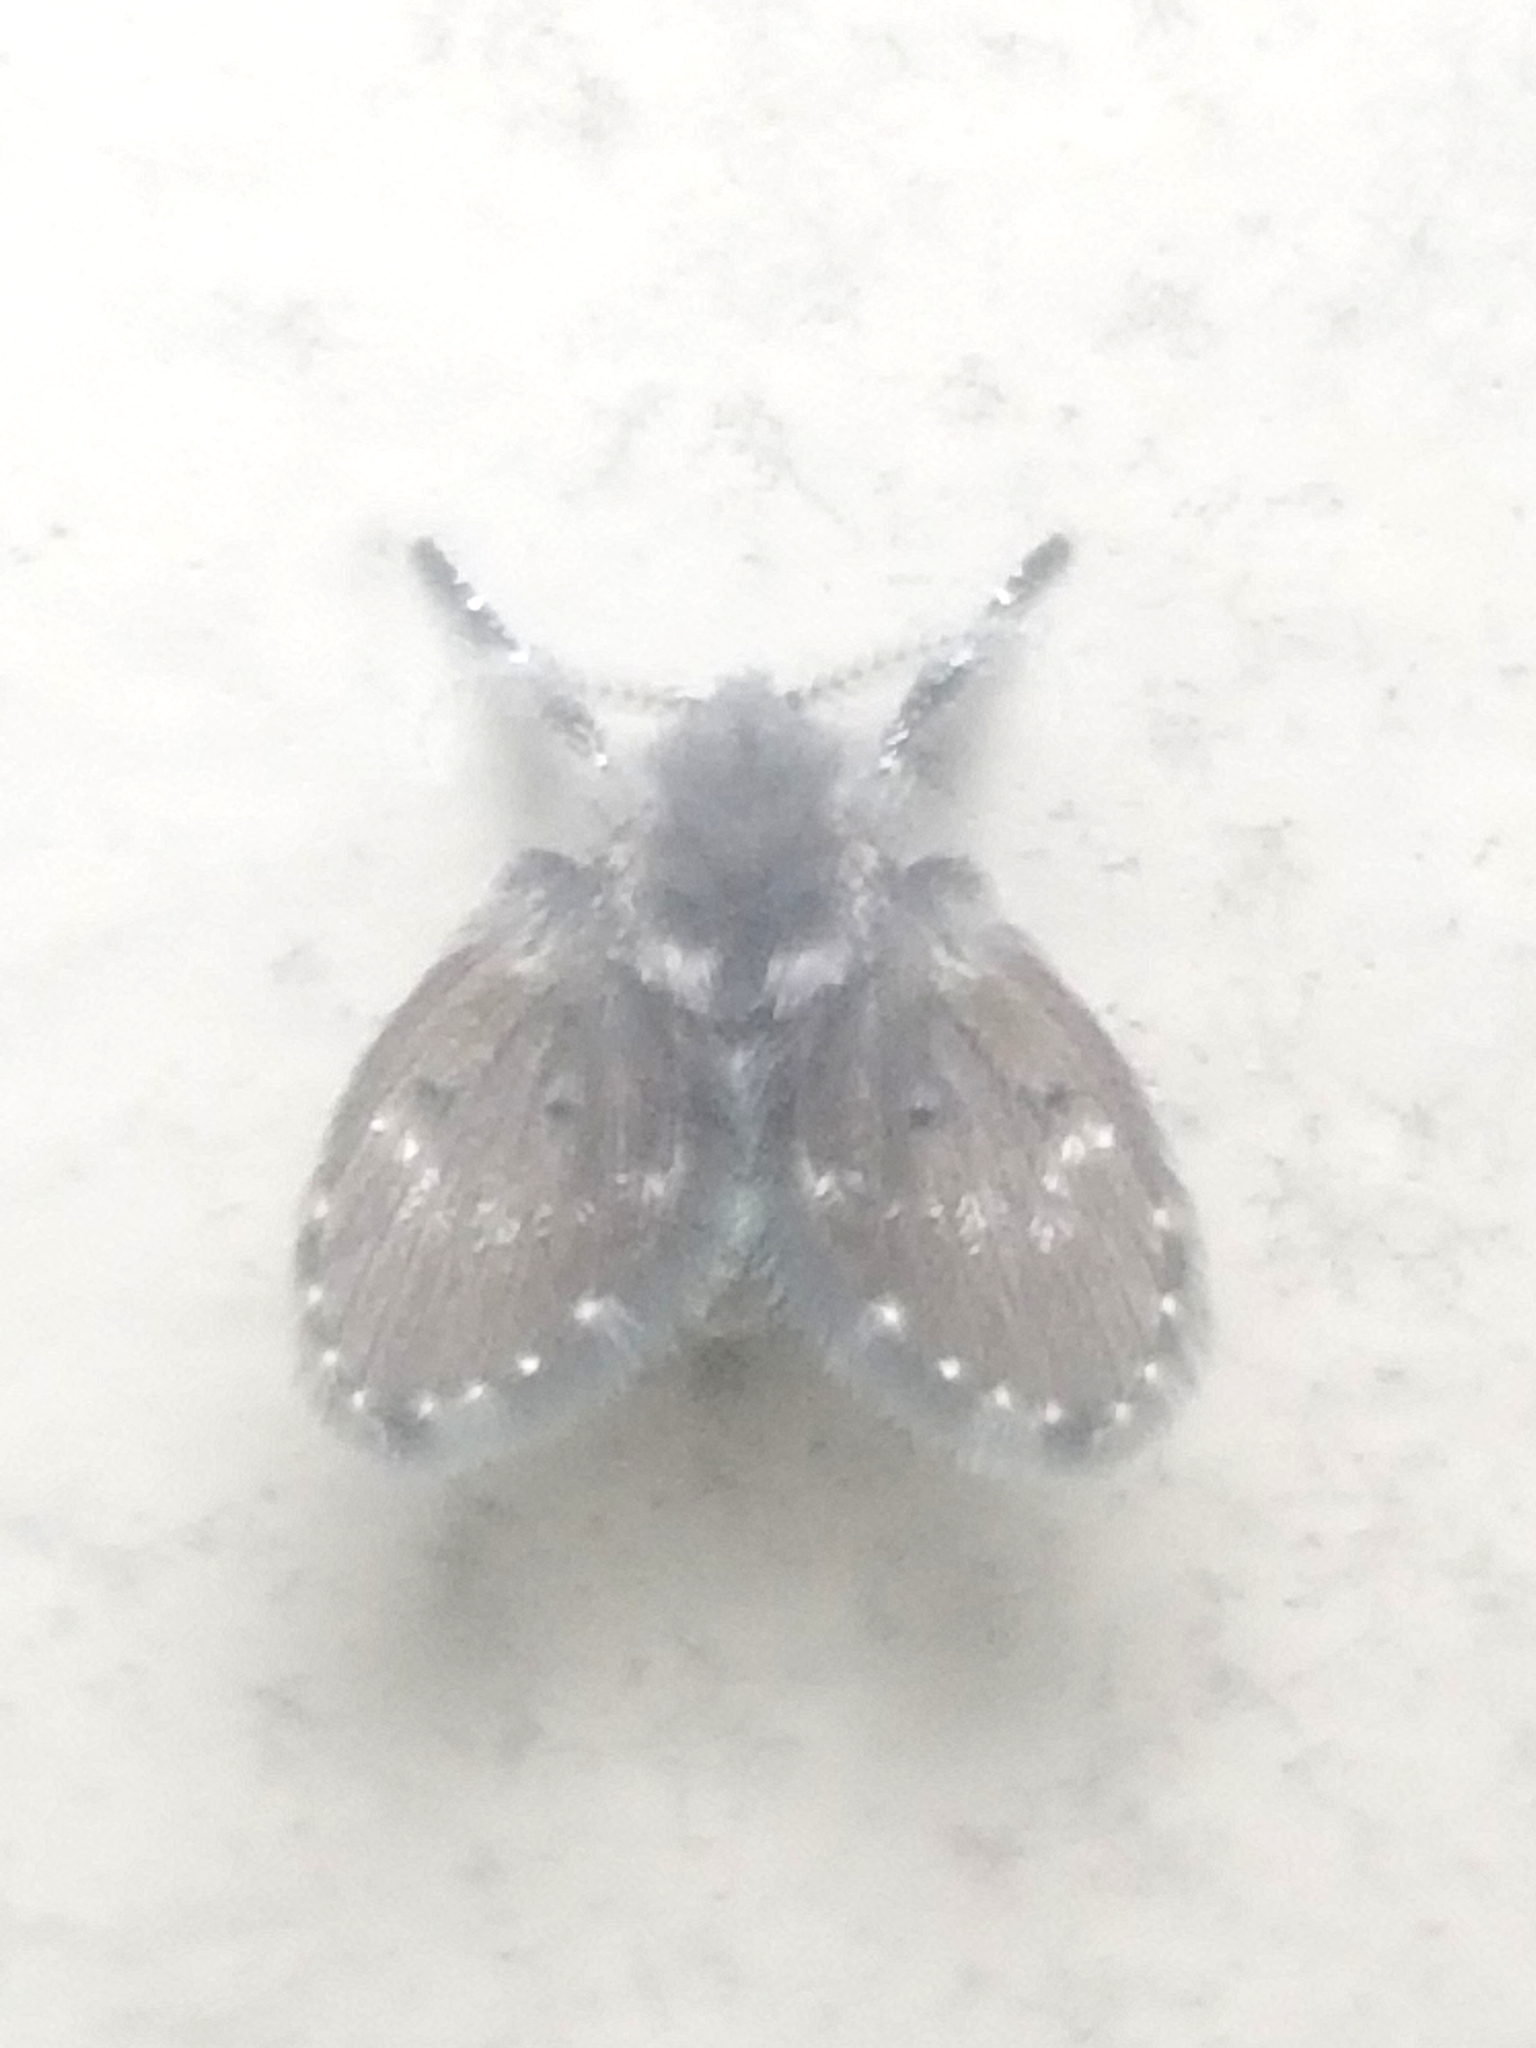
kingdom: Animalia
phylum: Arthropoda
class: Insecta
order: Diptera
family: Psychodidae
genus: Clogmia
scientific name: Clogmia albipunctatus
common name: White-spotted moth fly
